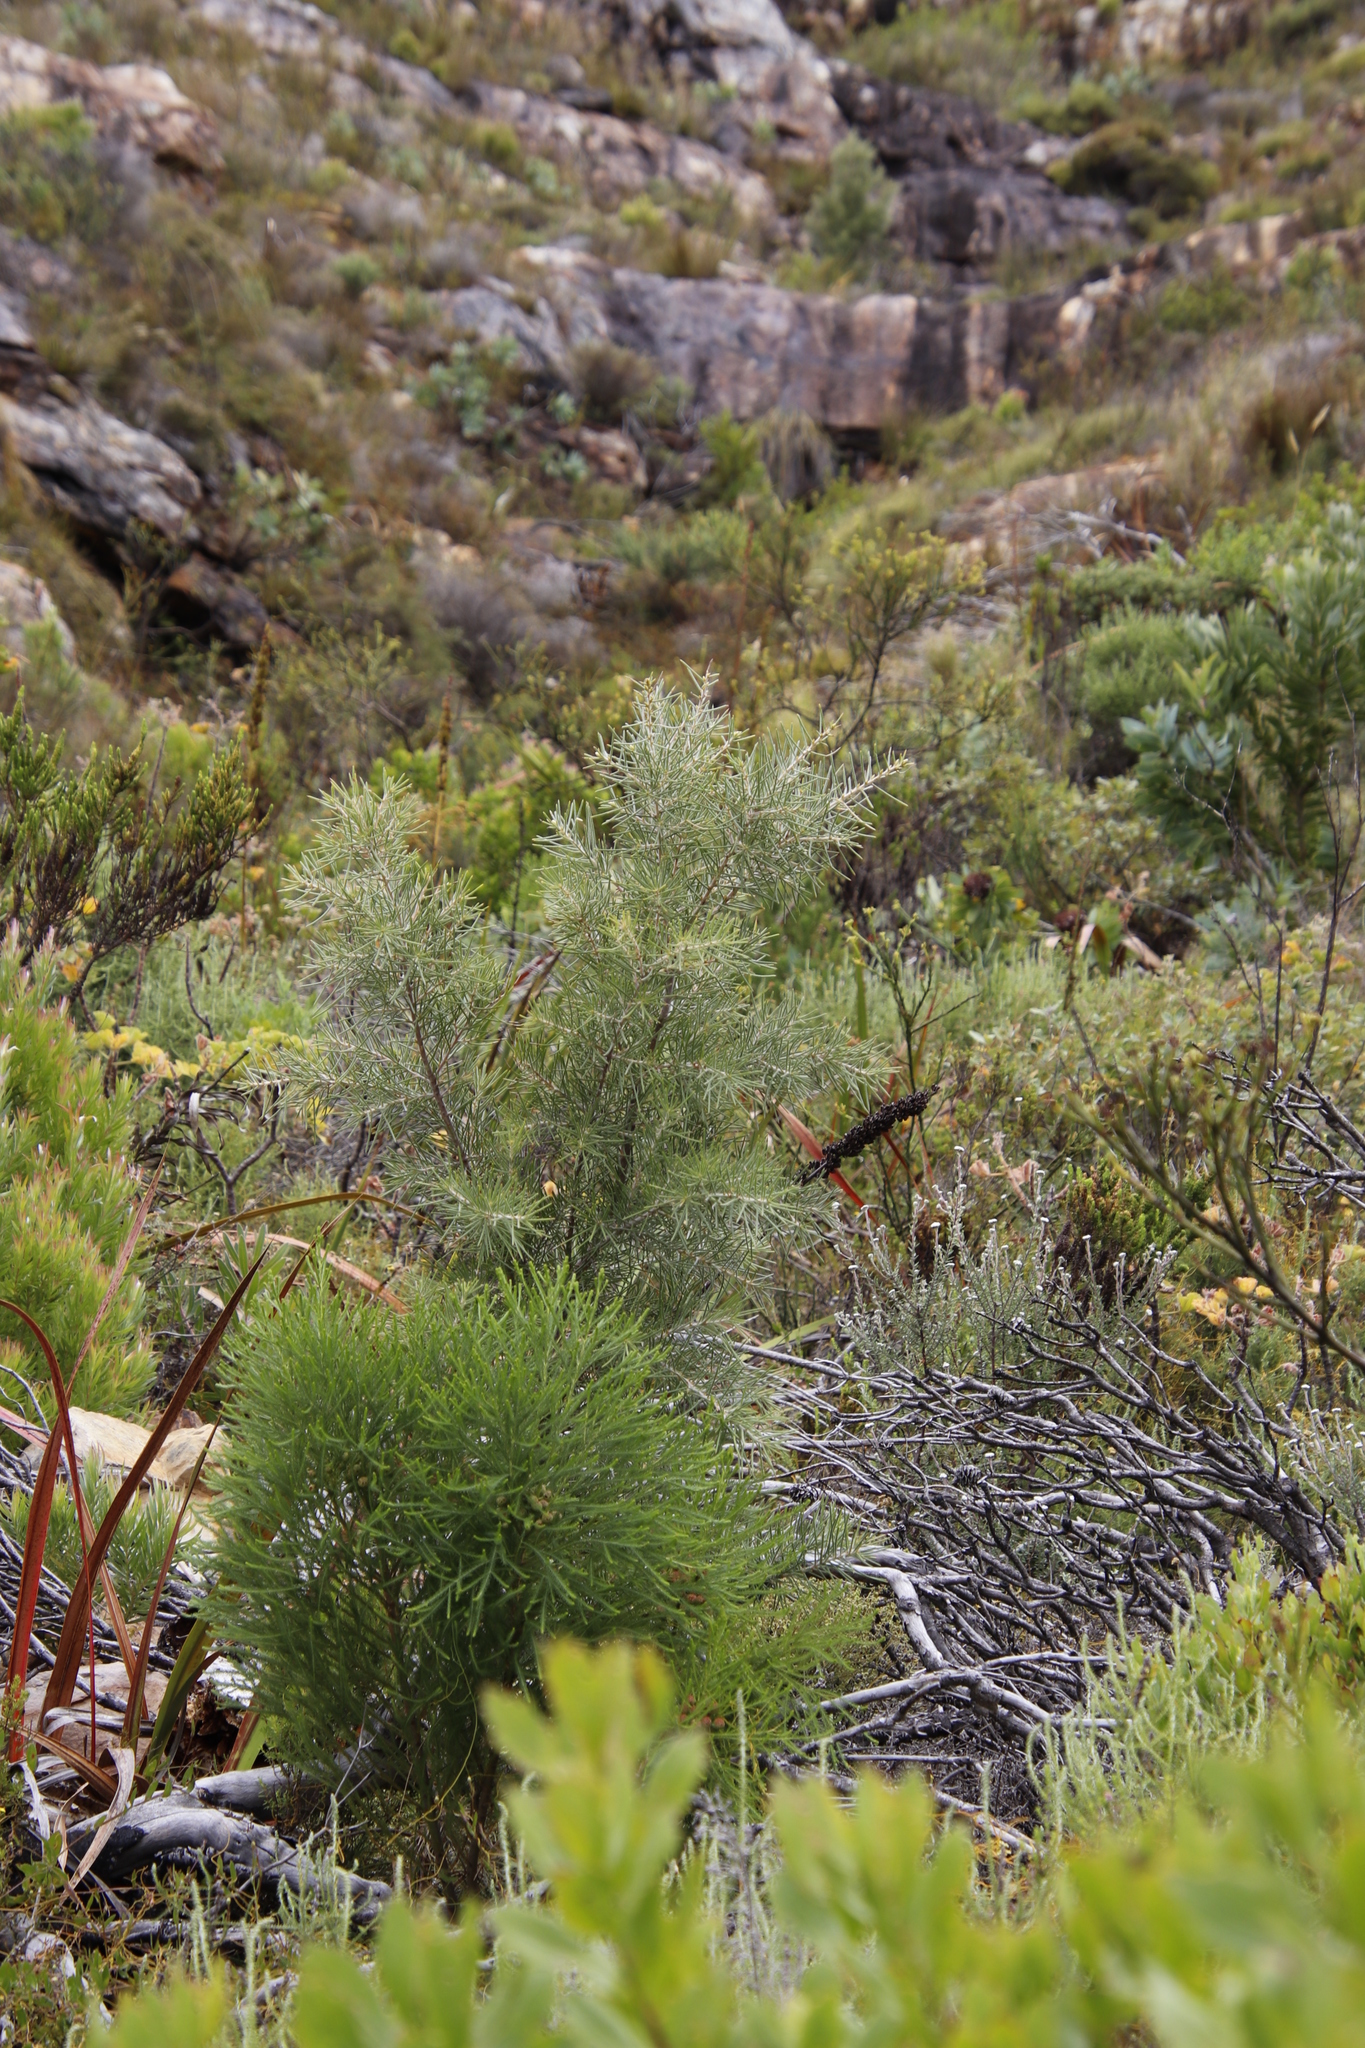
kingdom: Plantae
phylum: Tracheophyta
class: Magnoliopsida
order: Proteales
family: Proteaceae
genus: Hakea
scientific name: Hakea gibbosa
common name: Rock hakea
